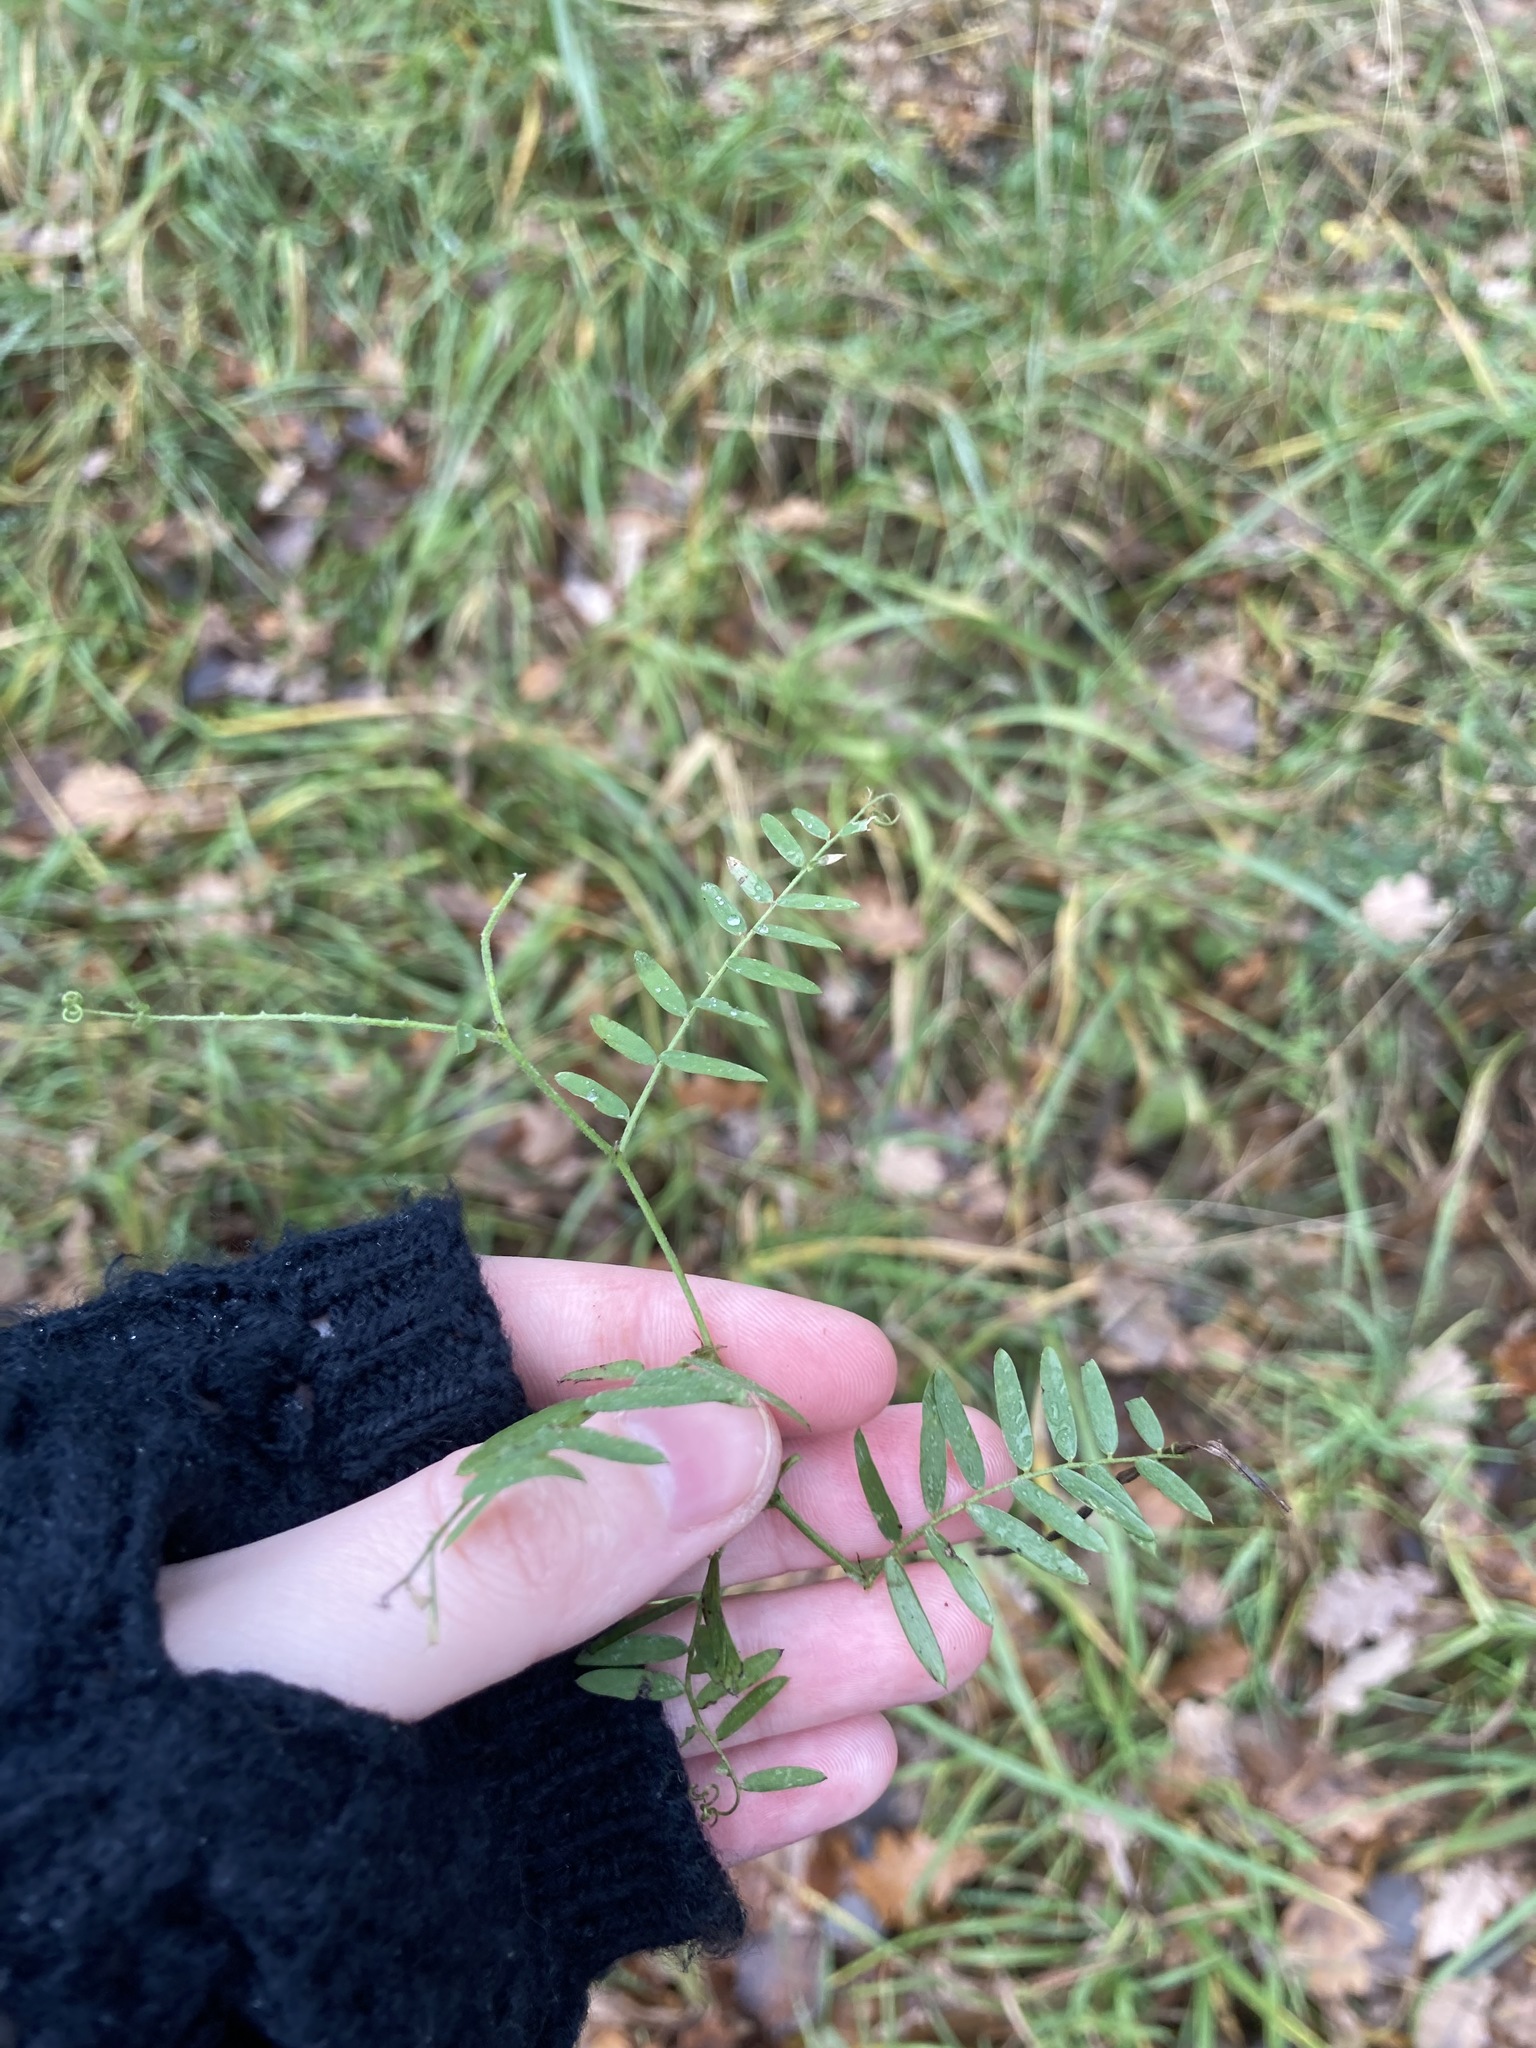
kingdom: Plantae
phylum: Tracheophyta
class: Magnoliopsida
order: Fabales
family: Fabaceae
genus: Vicia
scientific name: Vicia cracca
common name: Bird vetch
